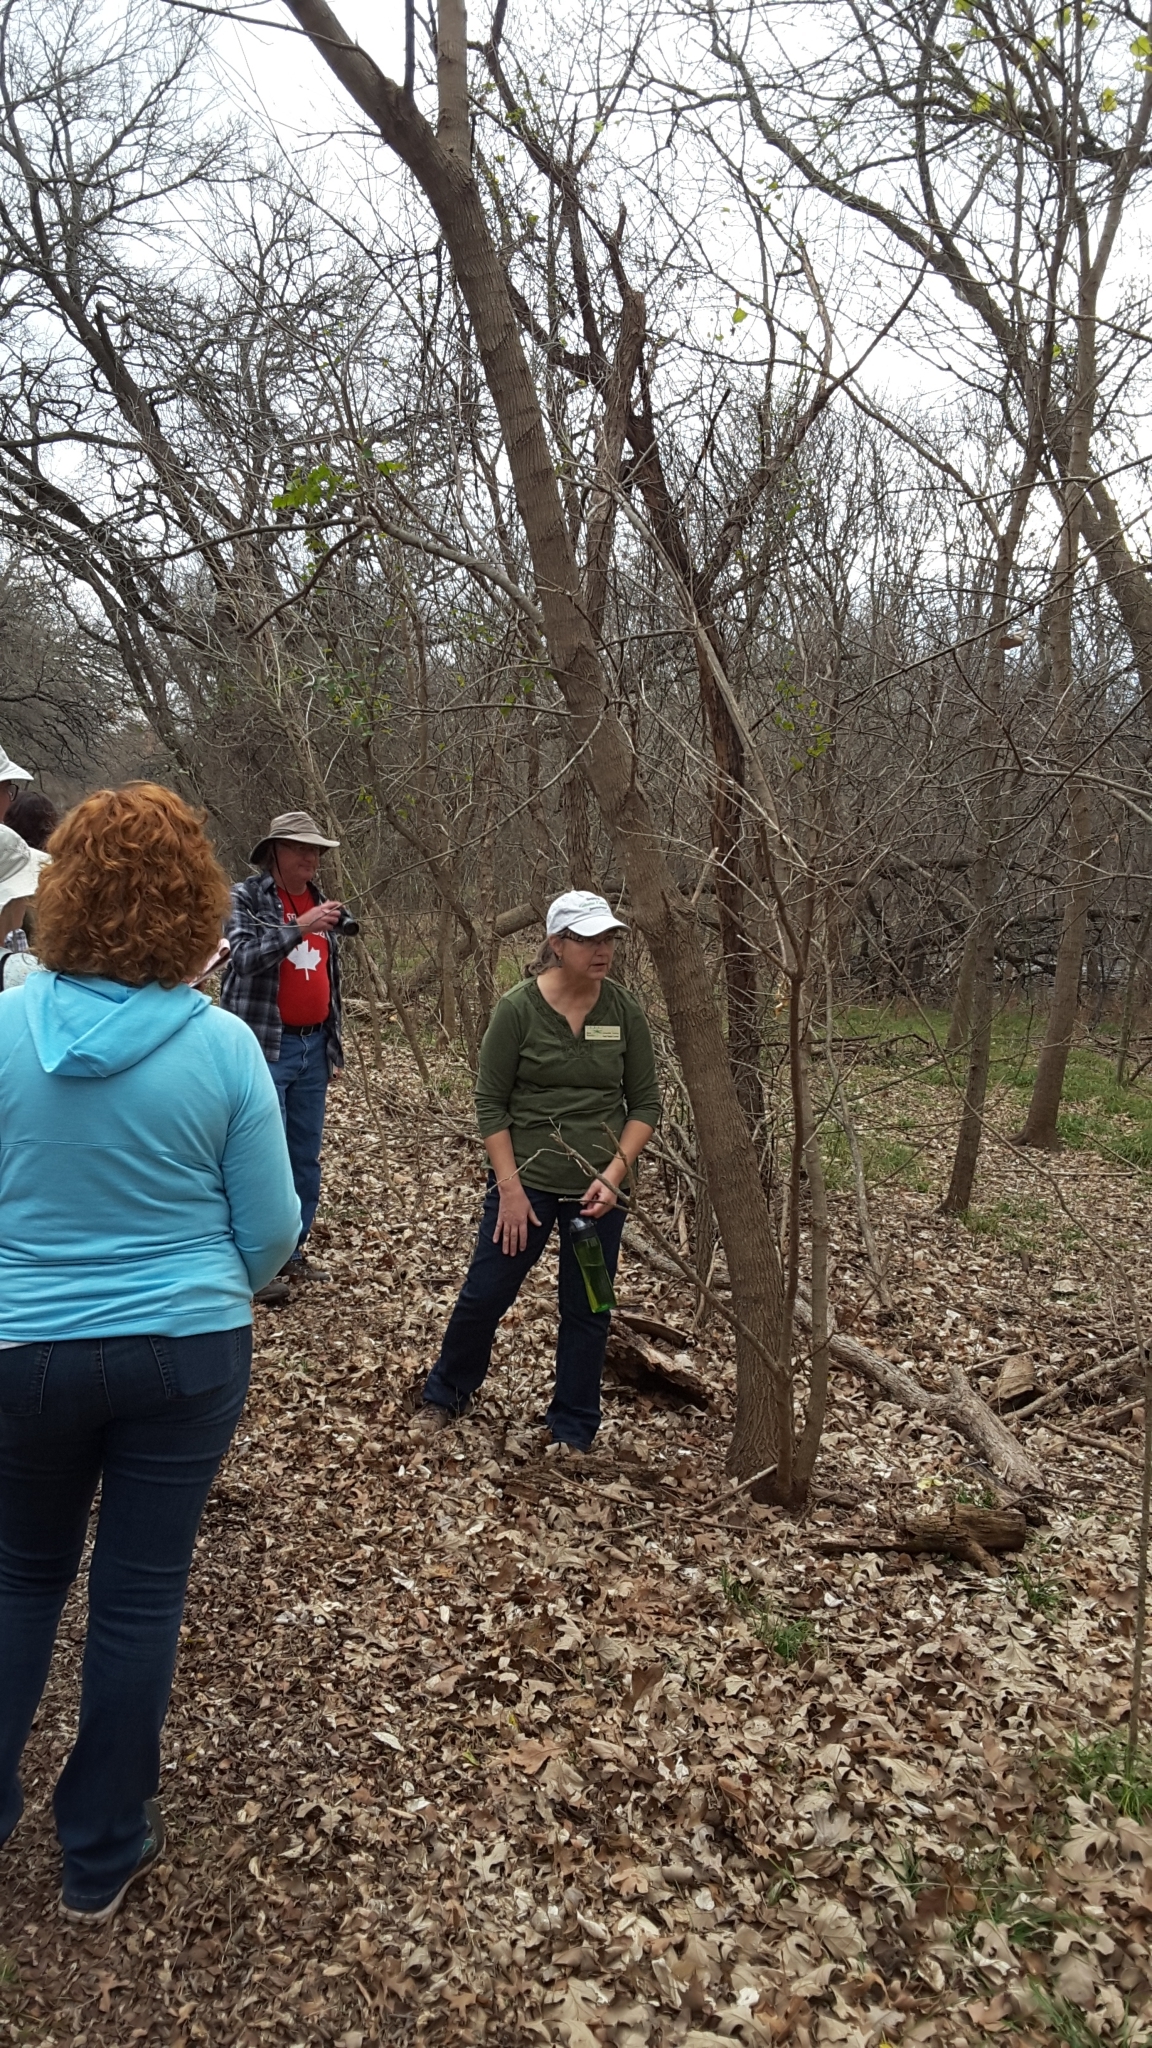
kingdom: Plantae
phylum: Tracheophyta
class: Magnoliopsida
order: Sapindales
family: Sapindaceae
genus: Acer
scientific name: Acer negundo
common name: Ashleaf maple
